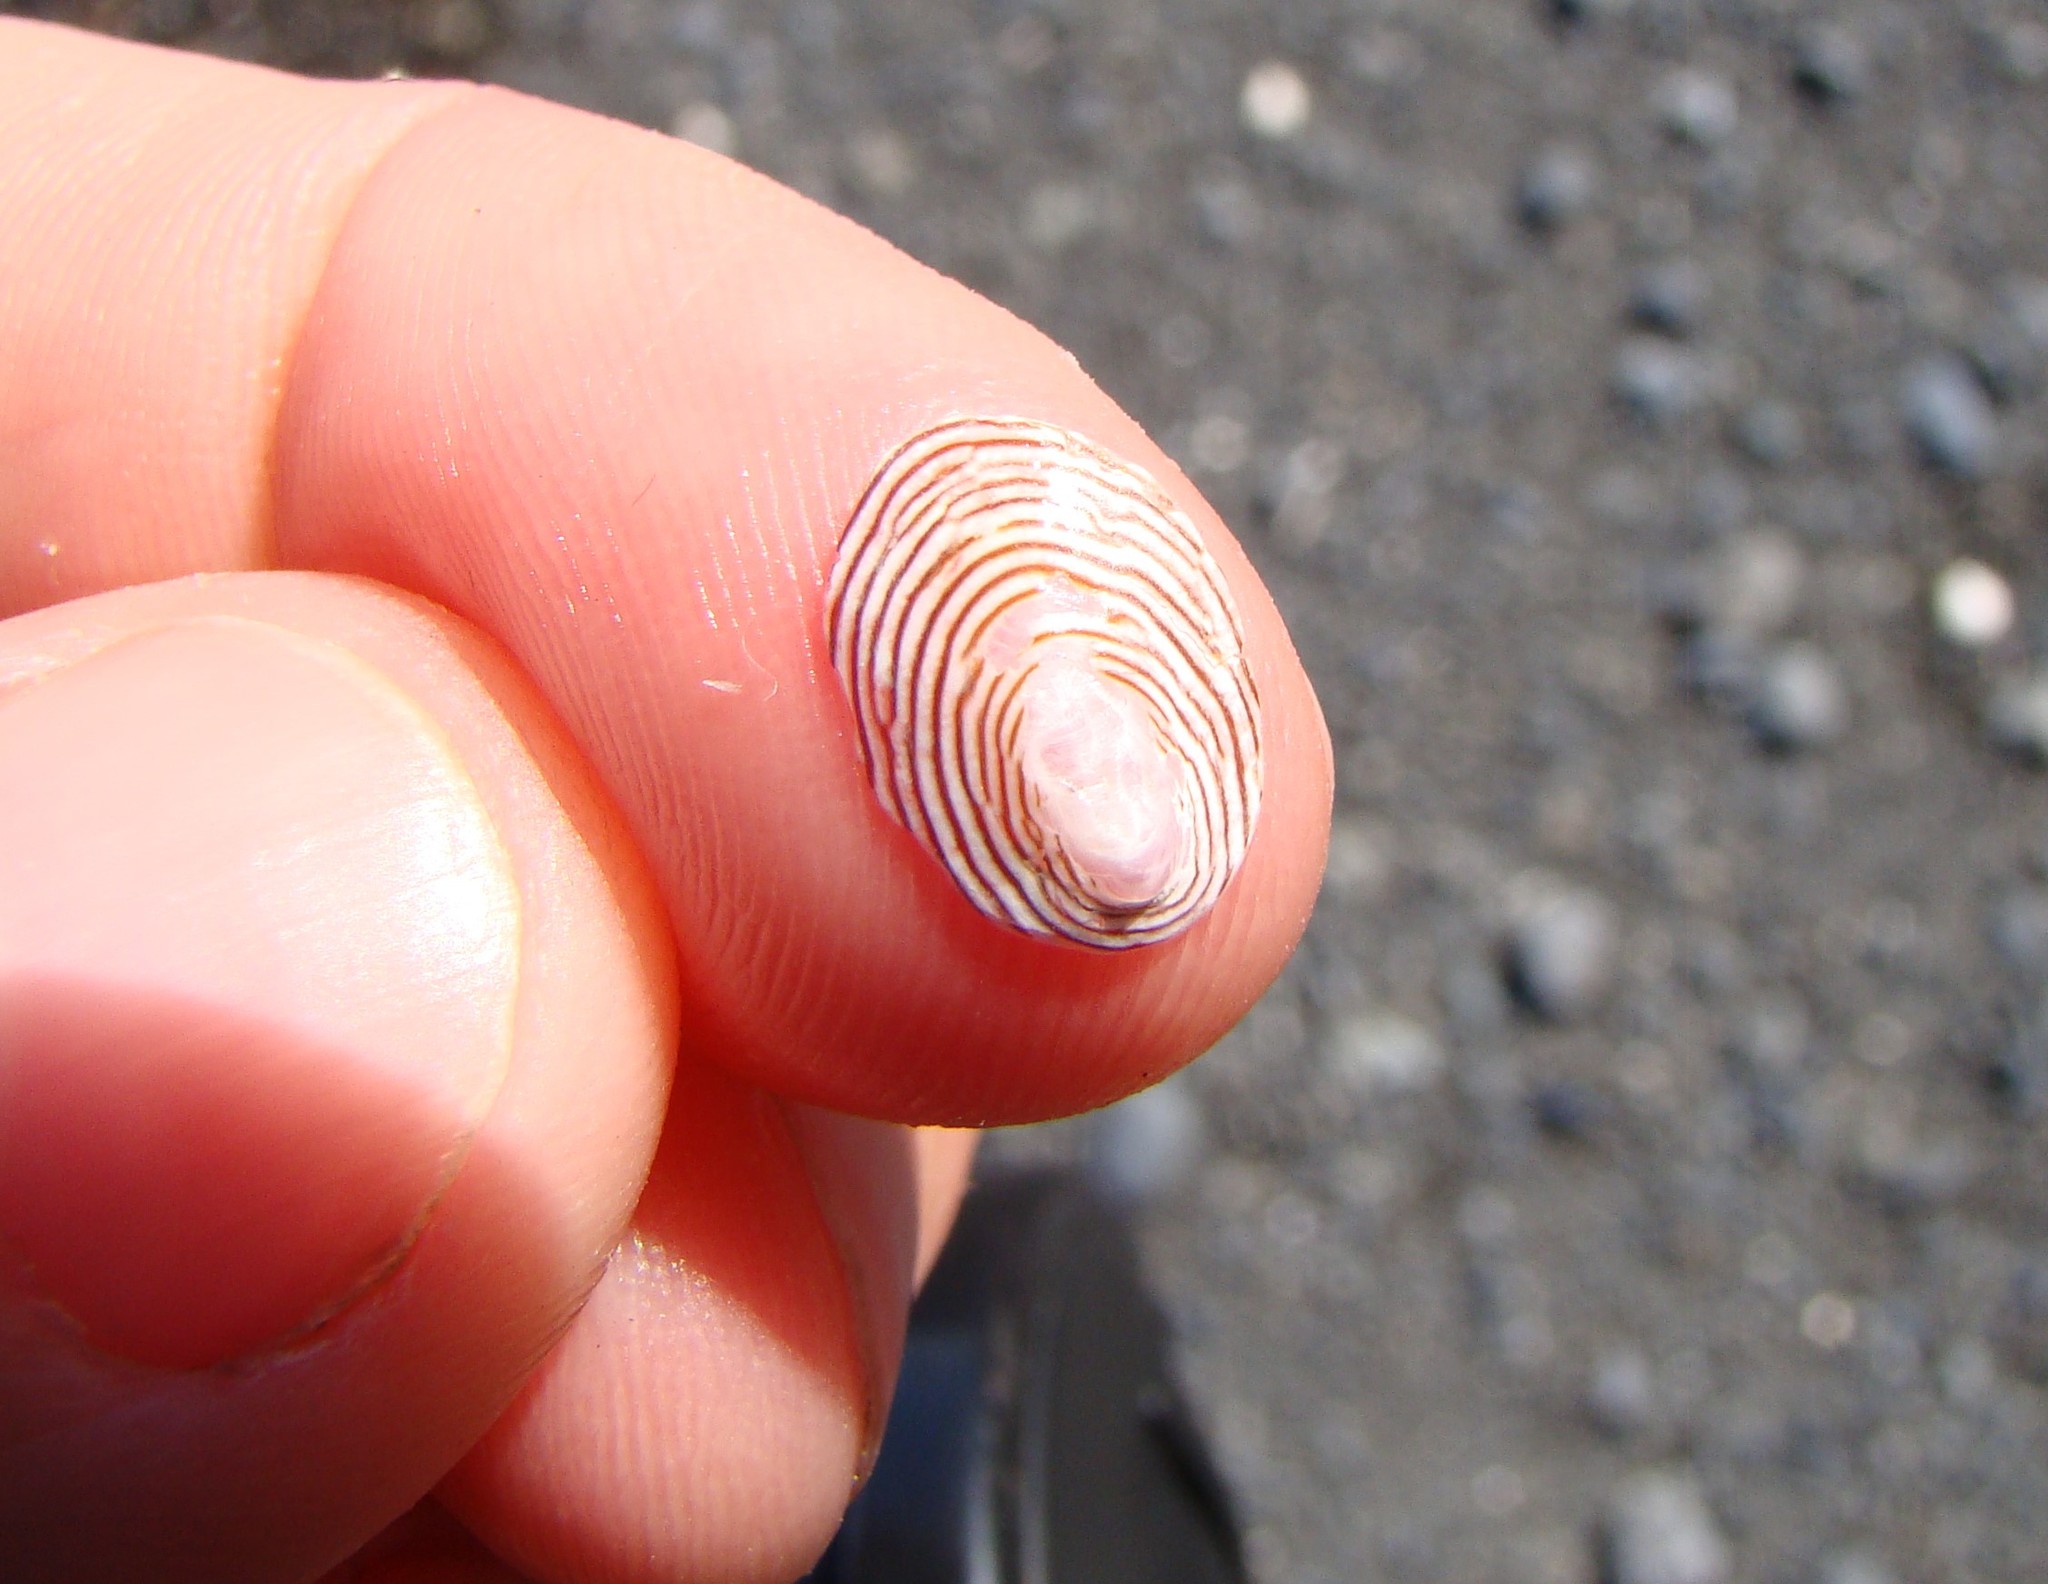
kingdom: Animalia
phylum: Mollusca
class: Gastropoda
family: Lottiidae
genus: Atalacmea
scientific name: Atalacmea fragilis
